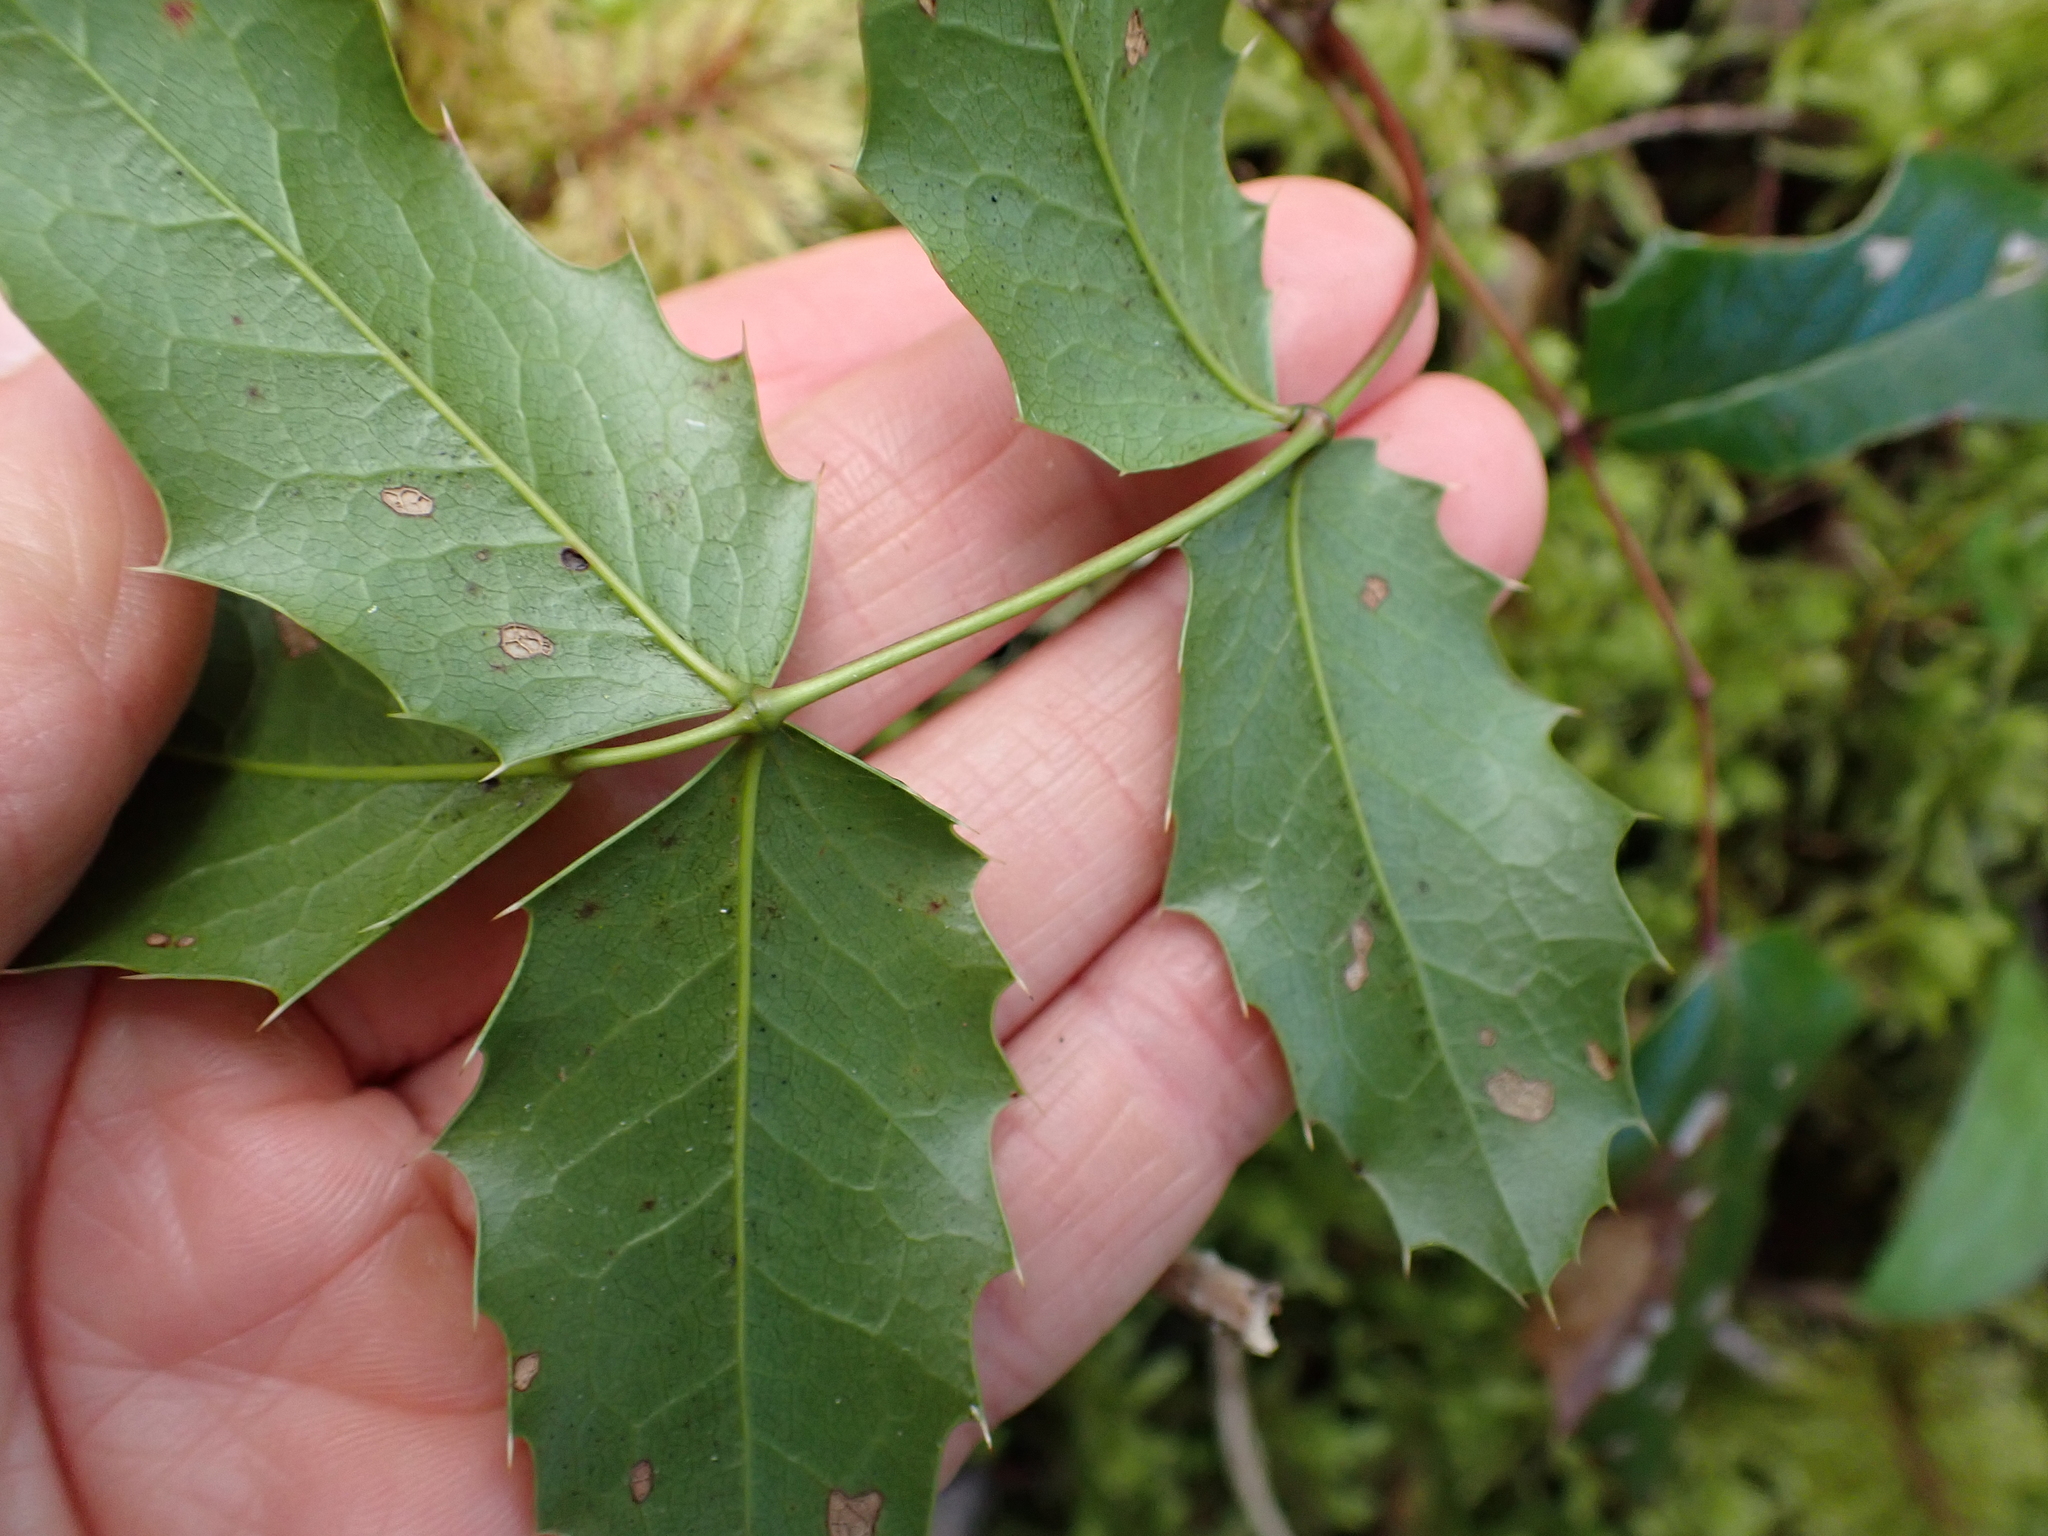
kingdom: Plantae
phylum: Tracheophyta
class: Magnoliopsida
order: Ranunculales
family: Berberidaceae
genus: Mahonia
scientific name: Mahonia aquifolium
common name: Oregon-grape
